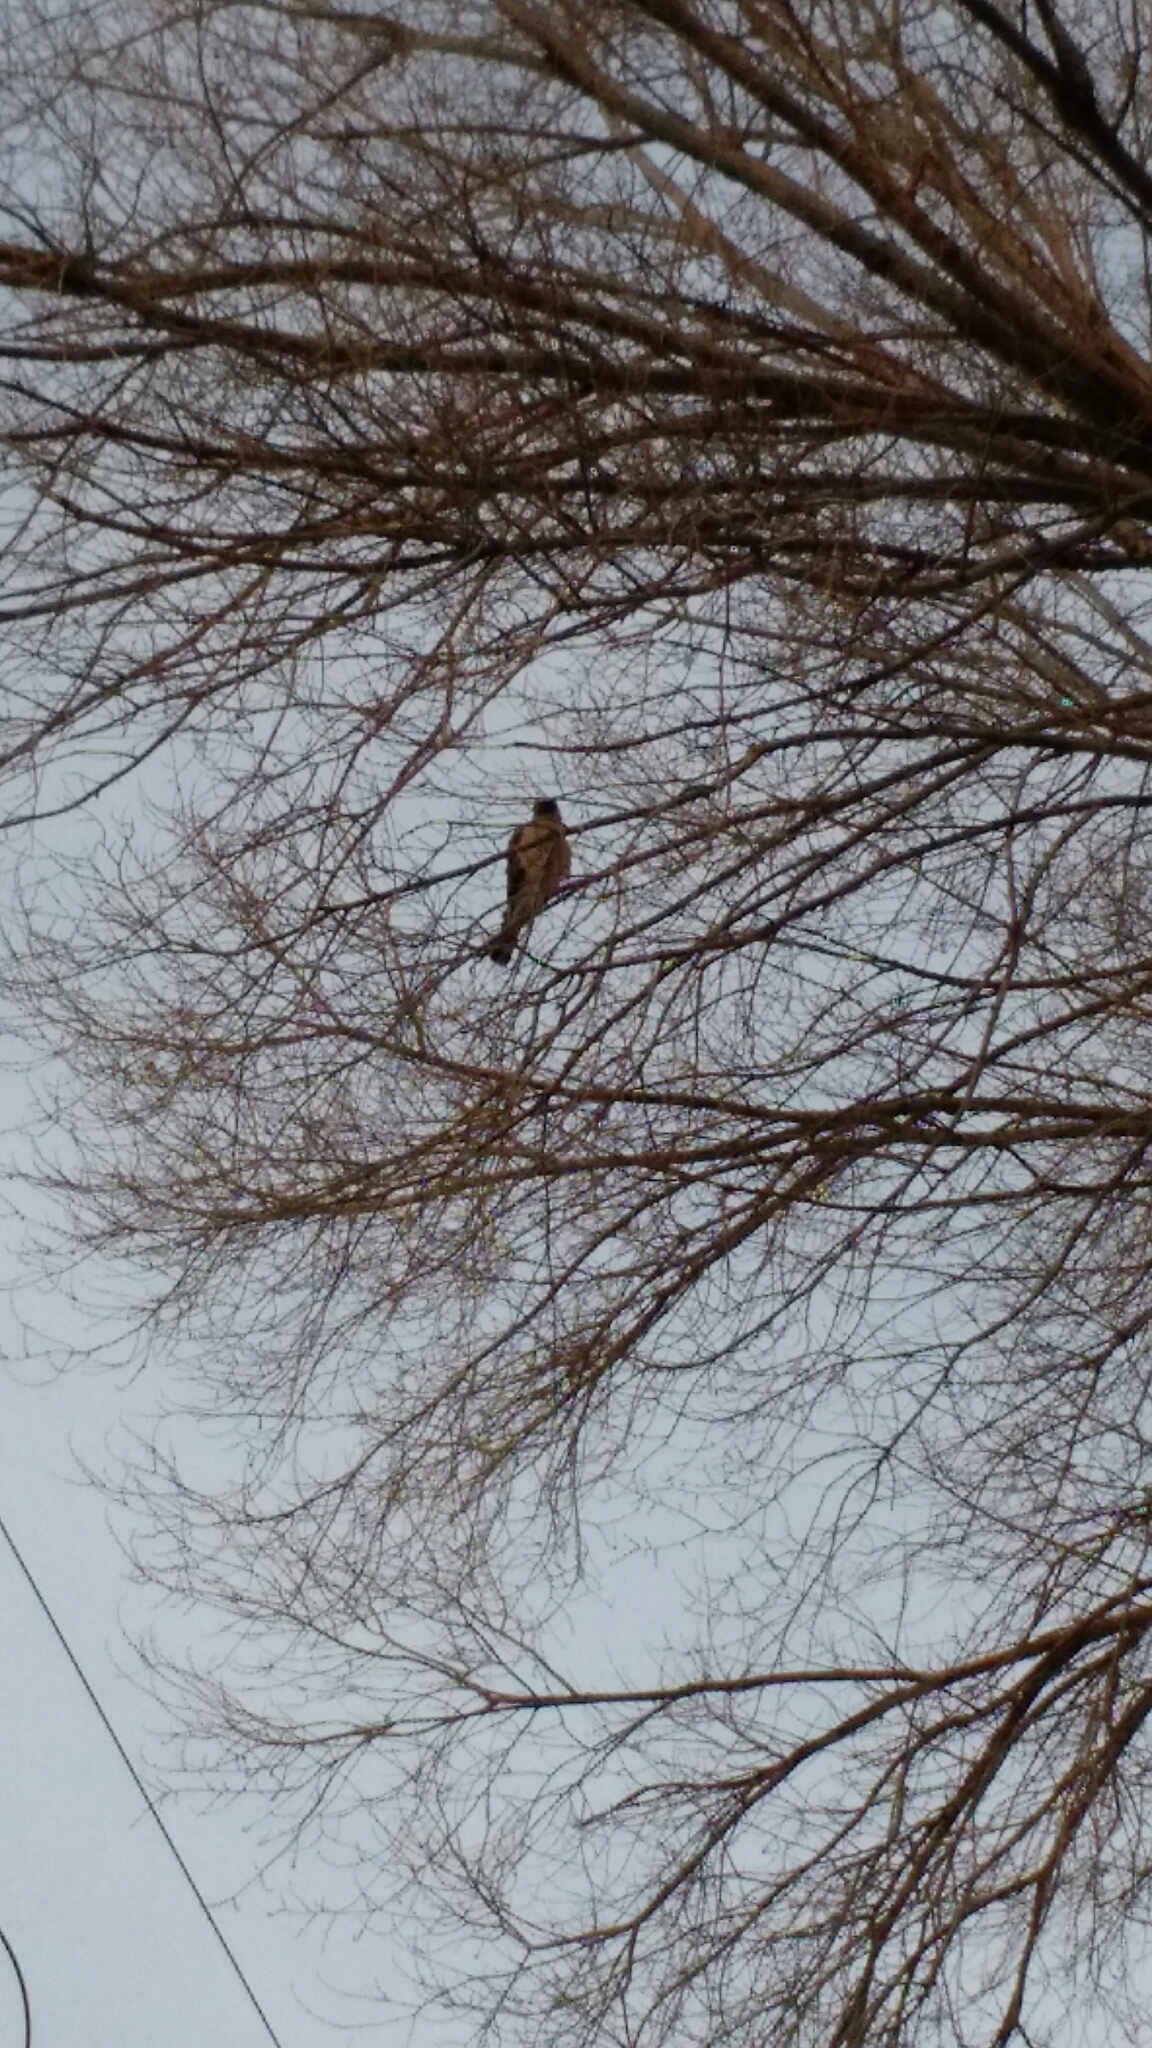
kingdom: Animalia
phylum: Chordata
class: Aves
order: Accipitriformes
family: Accipitridae
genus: Accipiter
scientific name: Accipiter
